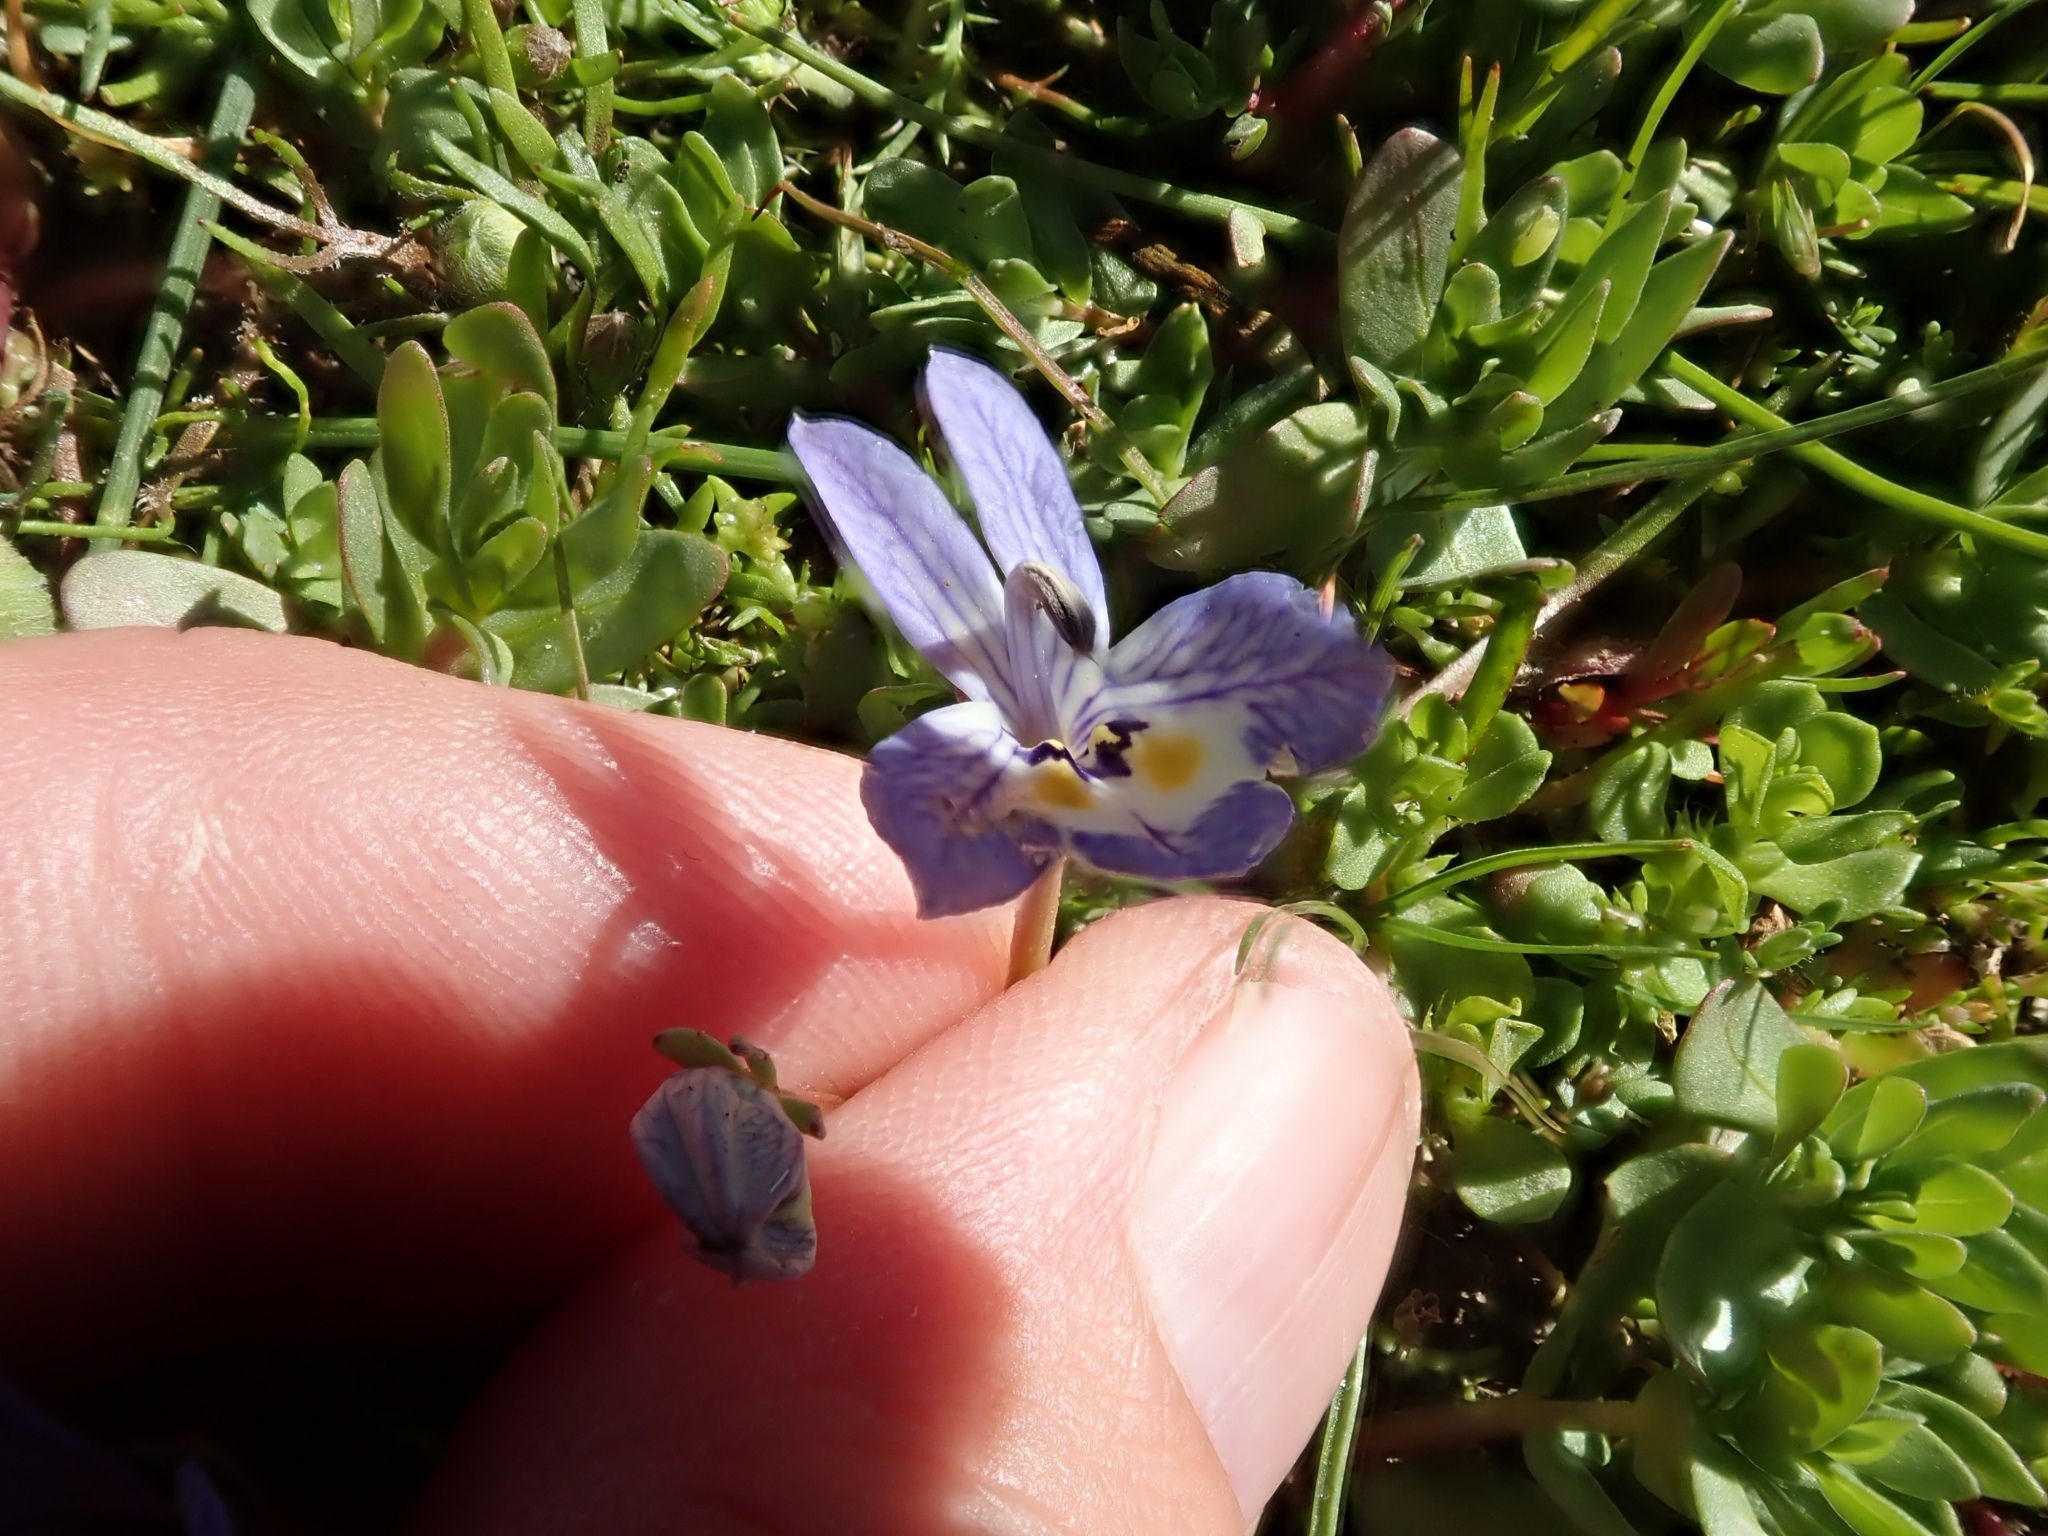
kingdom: Plantae
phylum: Tracheophyta
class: Magnoliopsida
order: Asterales
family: Campanulaceae
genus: Downingia
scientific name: Downingia insignis
